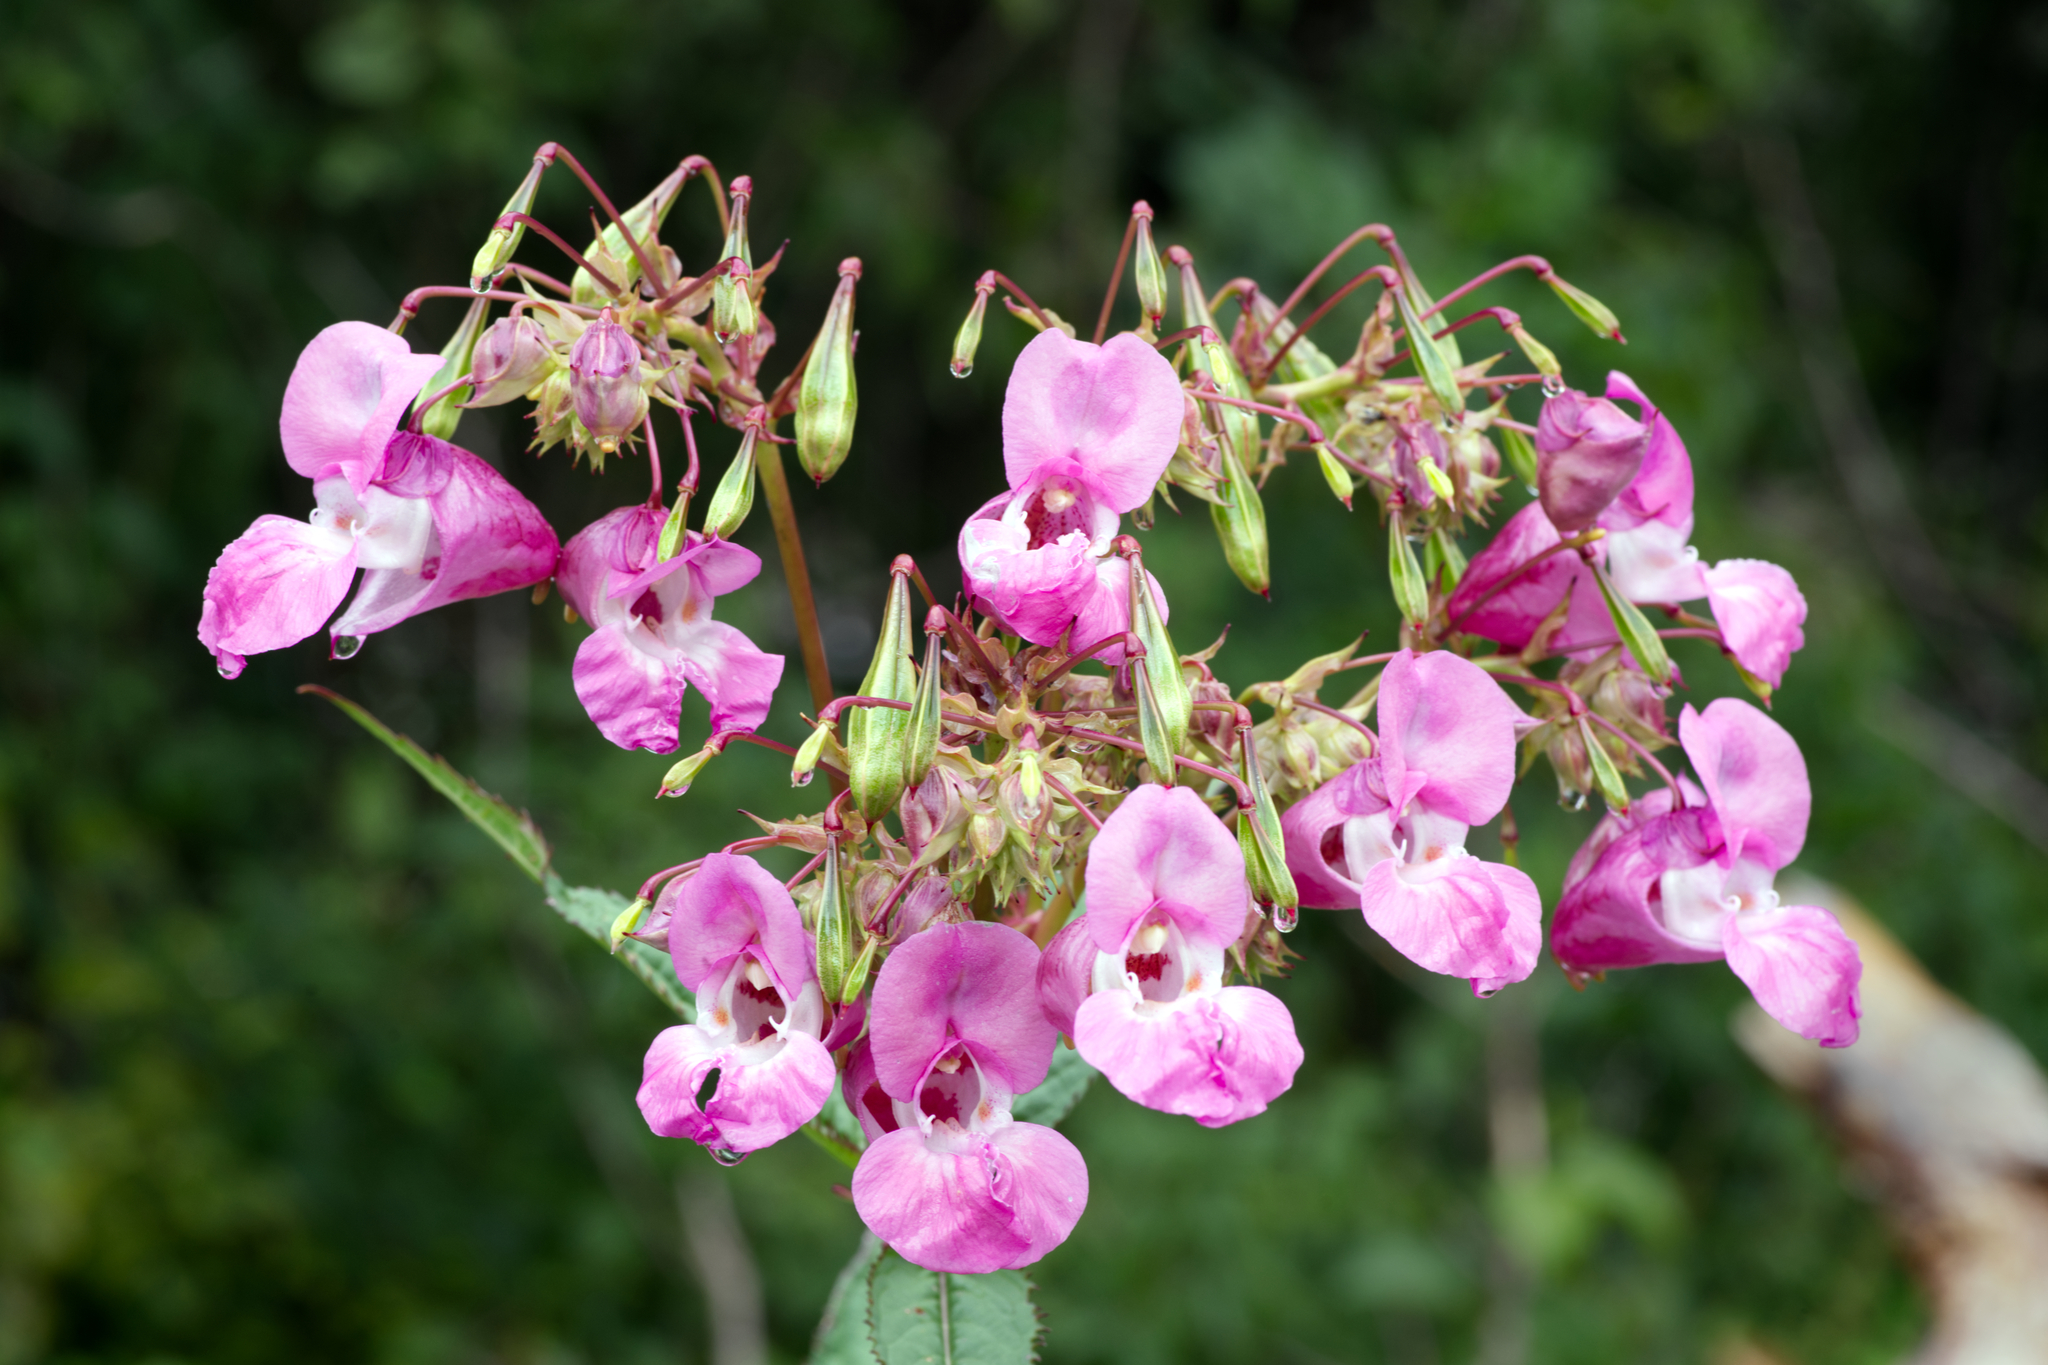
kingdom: Plantae
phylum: Tracheophyta
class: Magnoliopsida
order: Ericales
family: Balsaminaceae
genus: Impatiens
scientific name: Impatiens glandulifera
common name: Himalayan balsam
